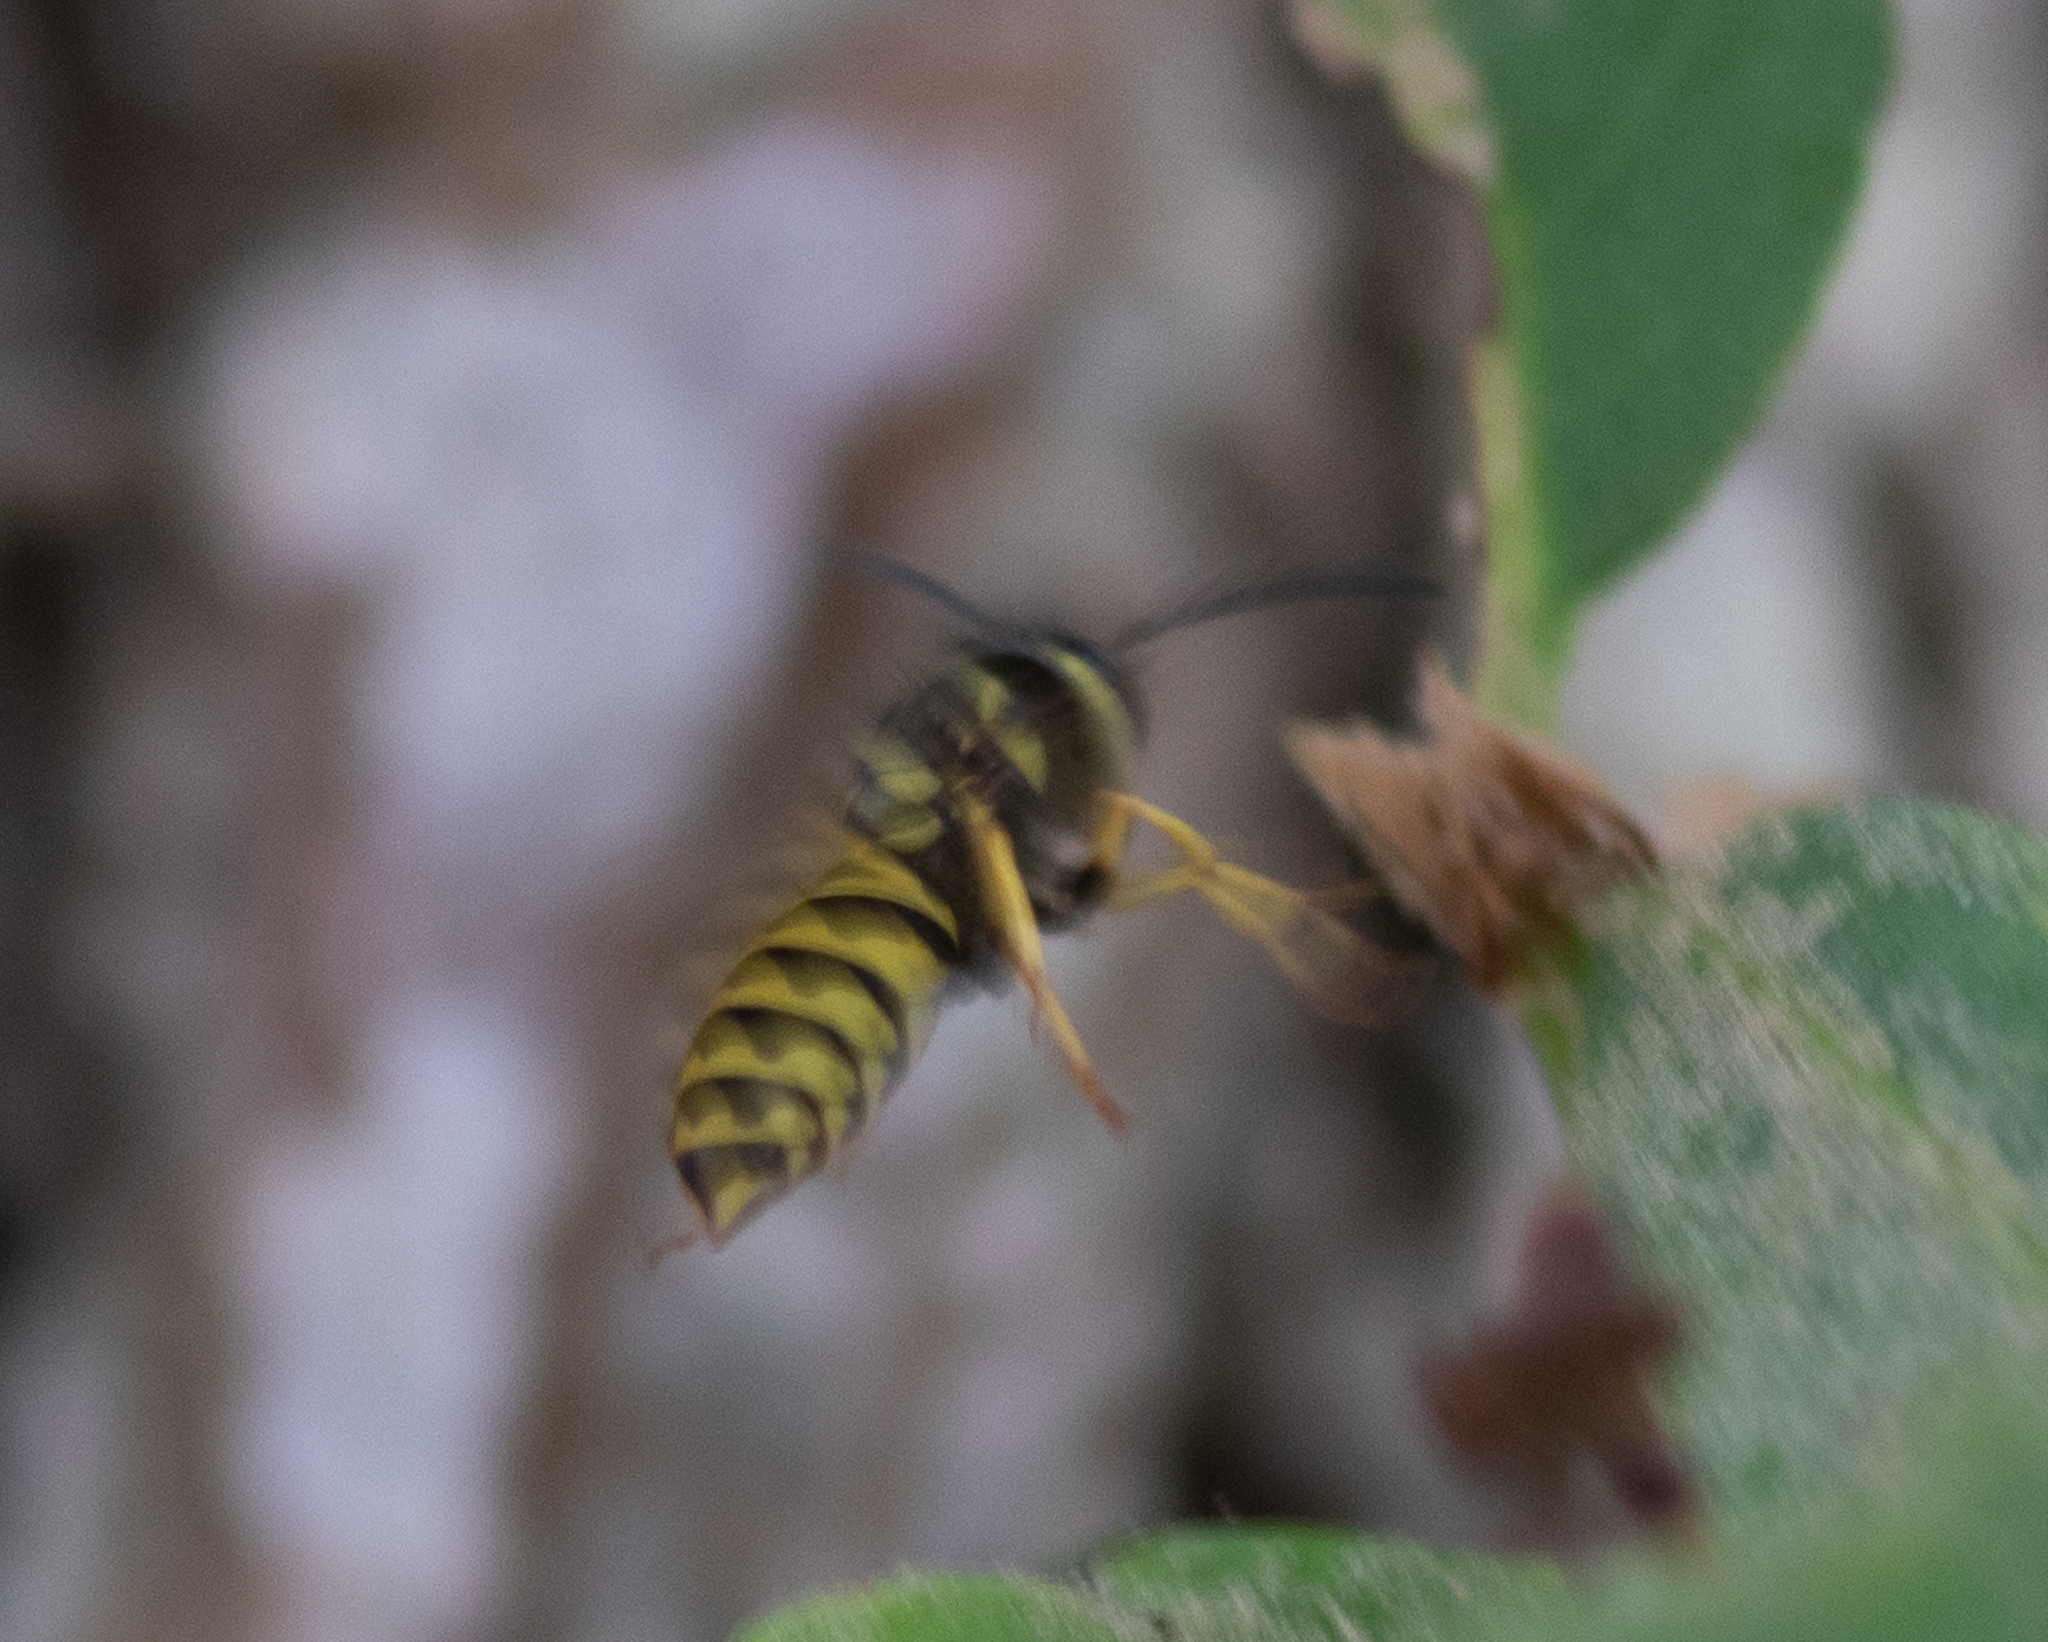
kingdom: Animalia
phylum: Arthropoda
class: Insecta
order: Hymenoptera
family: Vespidae
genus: Vespula
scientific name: Vespula maculifrons
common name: Eastern yellowjacket
